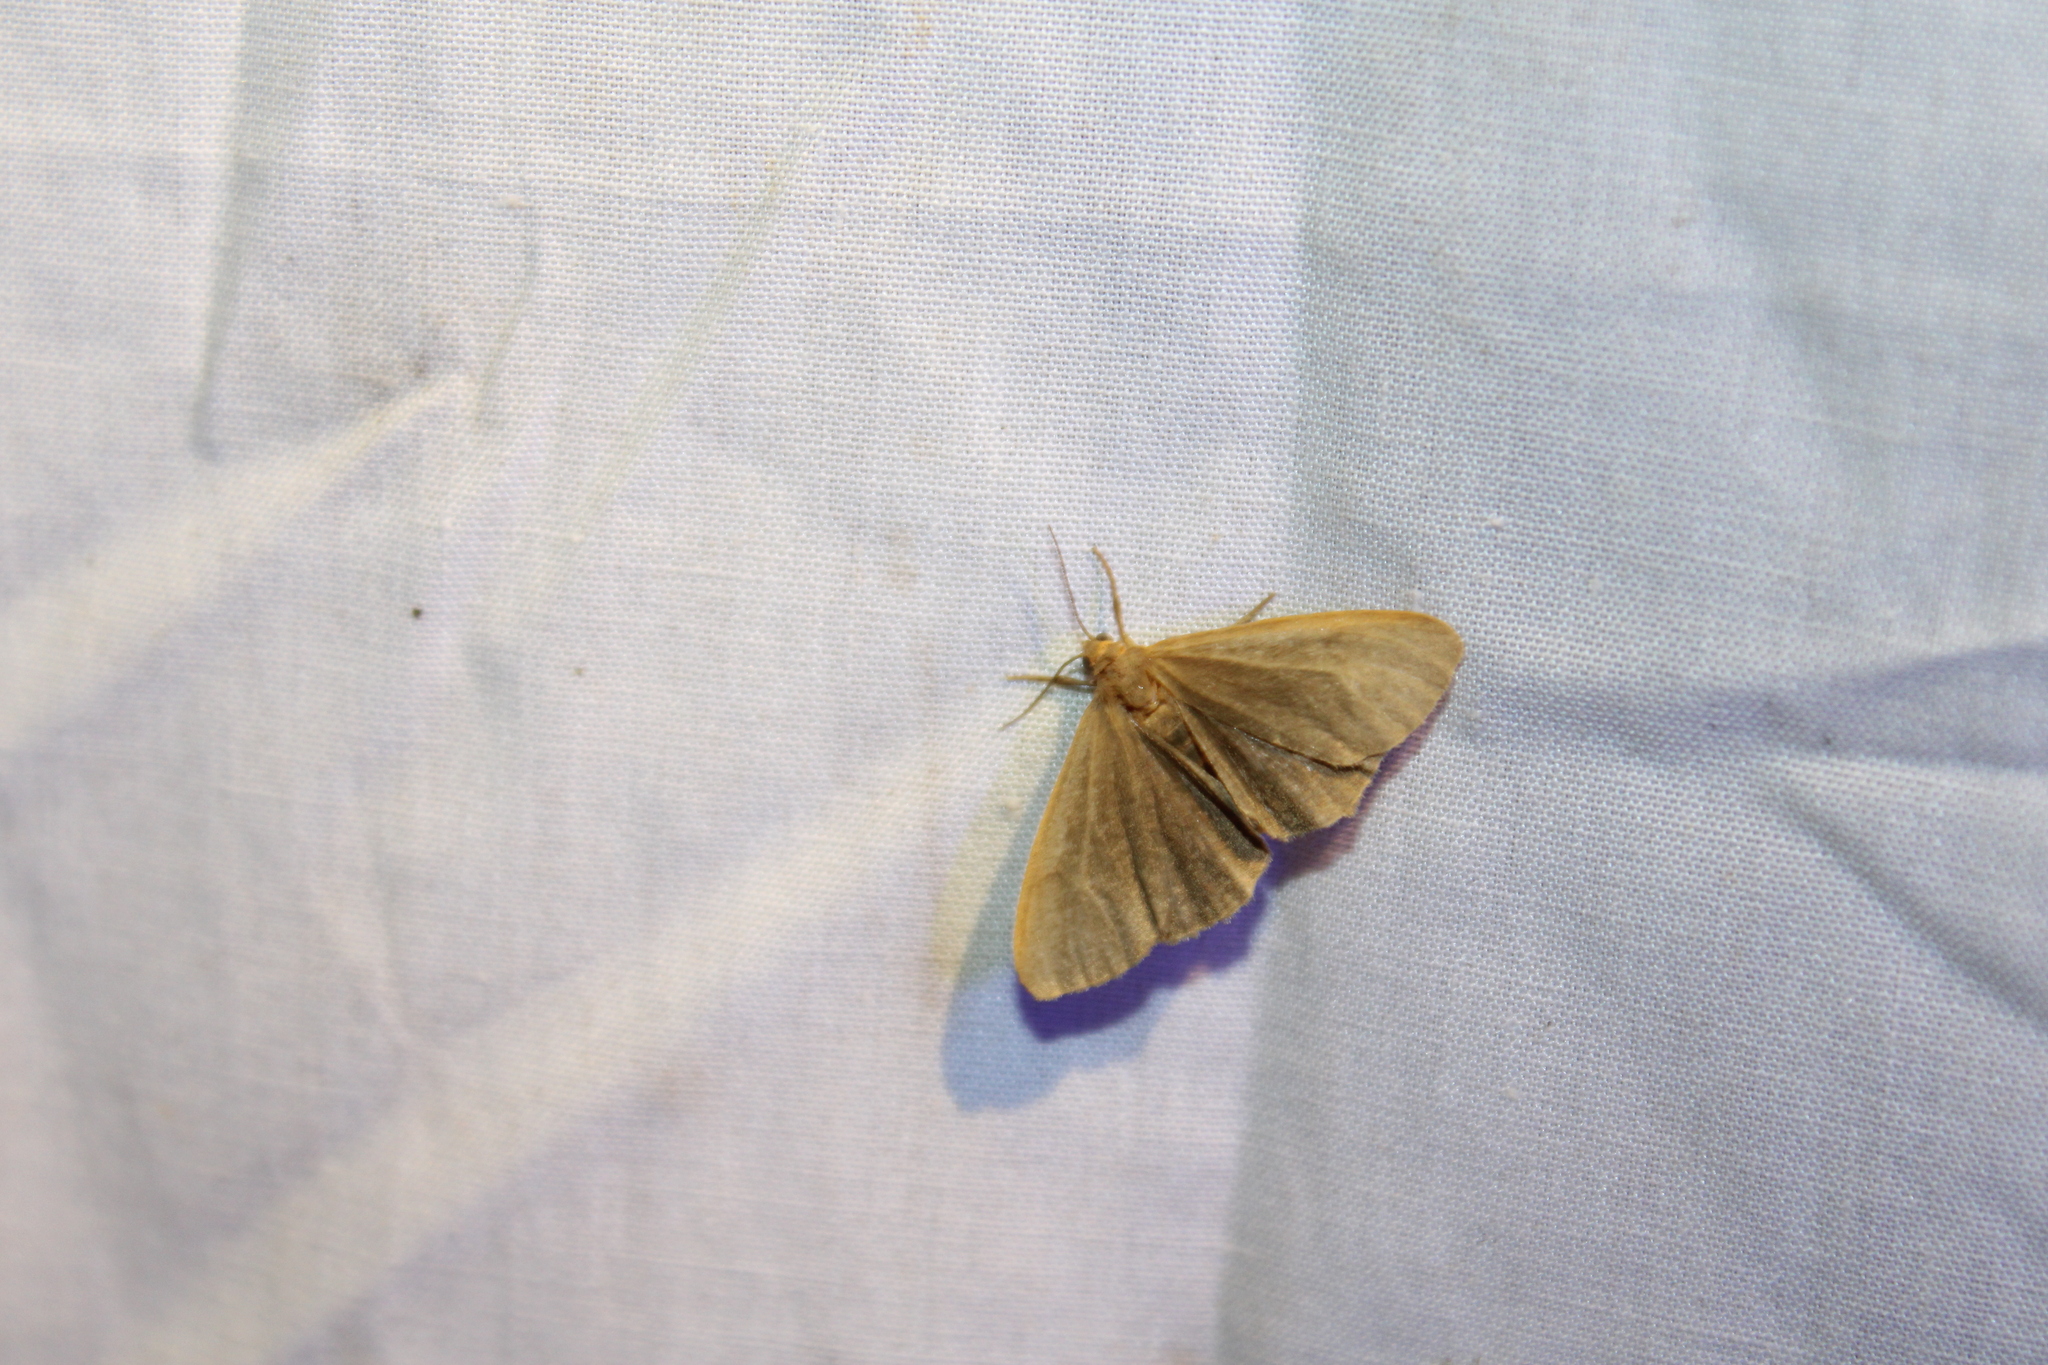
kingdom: Animalia
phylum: Arthropoda
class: Insecta
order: Lepidoptera
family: Erebidae
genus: Virbia
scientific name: Virbia opella
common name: Tawny virbia moth
